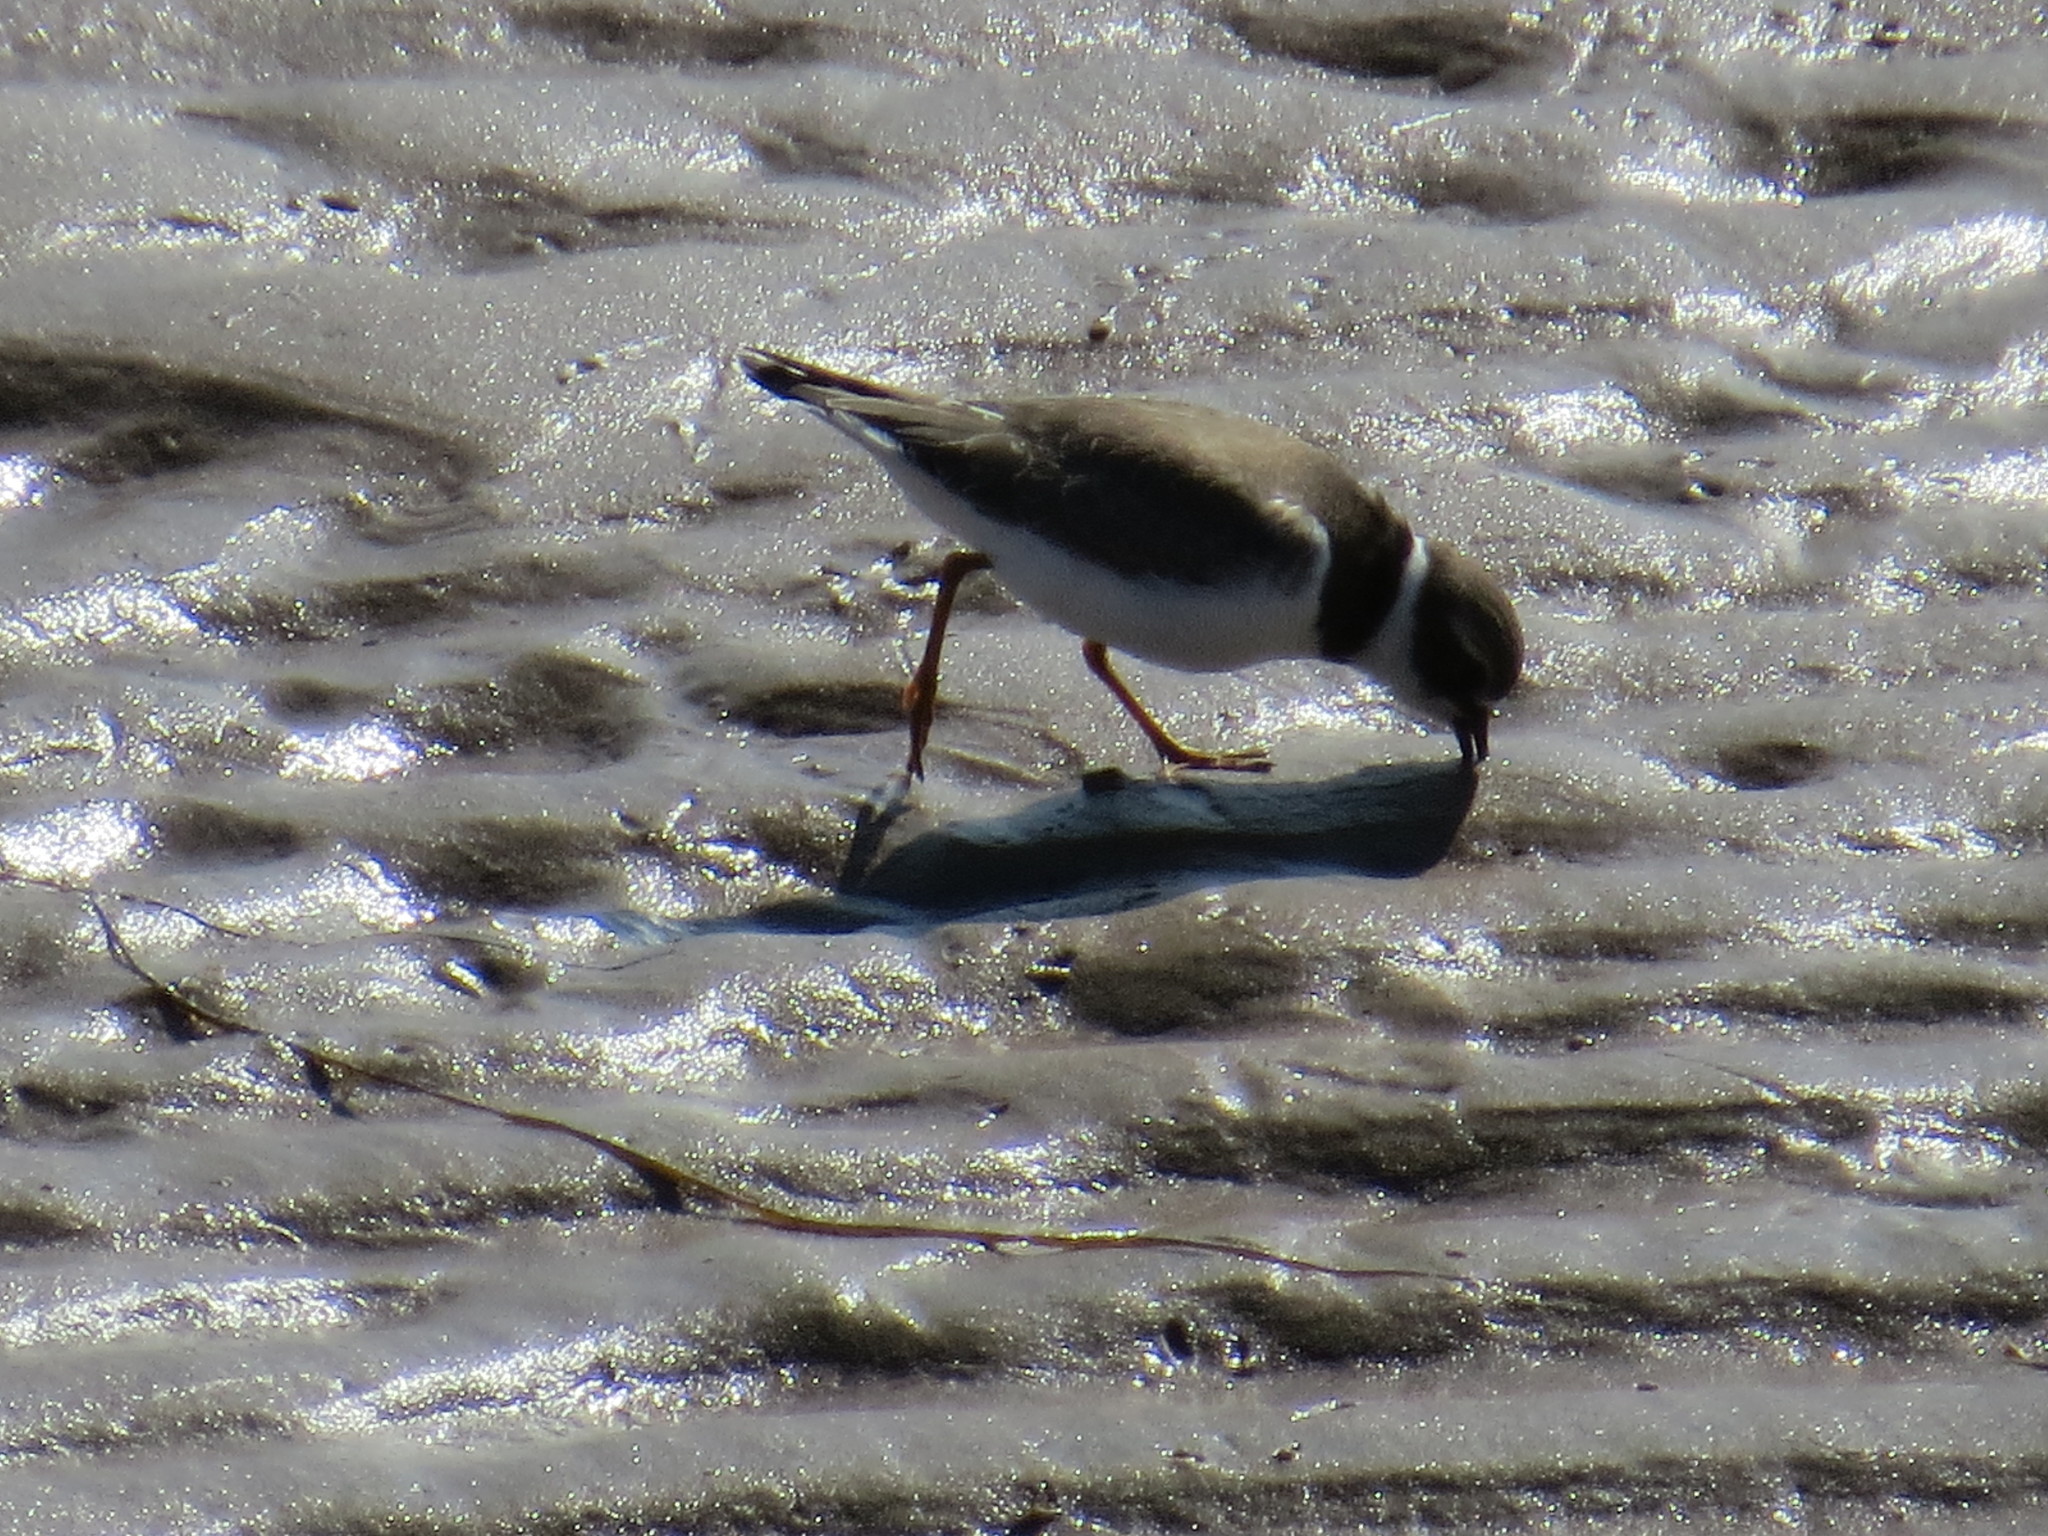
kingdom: Animalia
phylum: Chordata
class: Aves
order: Charadriiformes
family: Charadriidae
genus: Charadrius
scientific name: Charadrius semipalmatus
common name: Semipalmated plover
